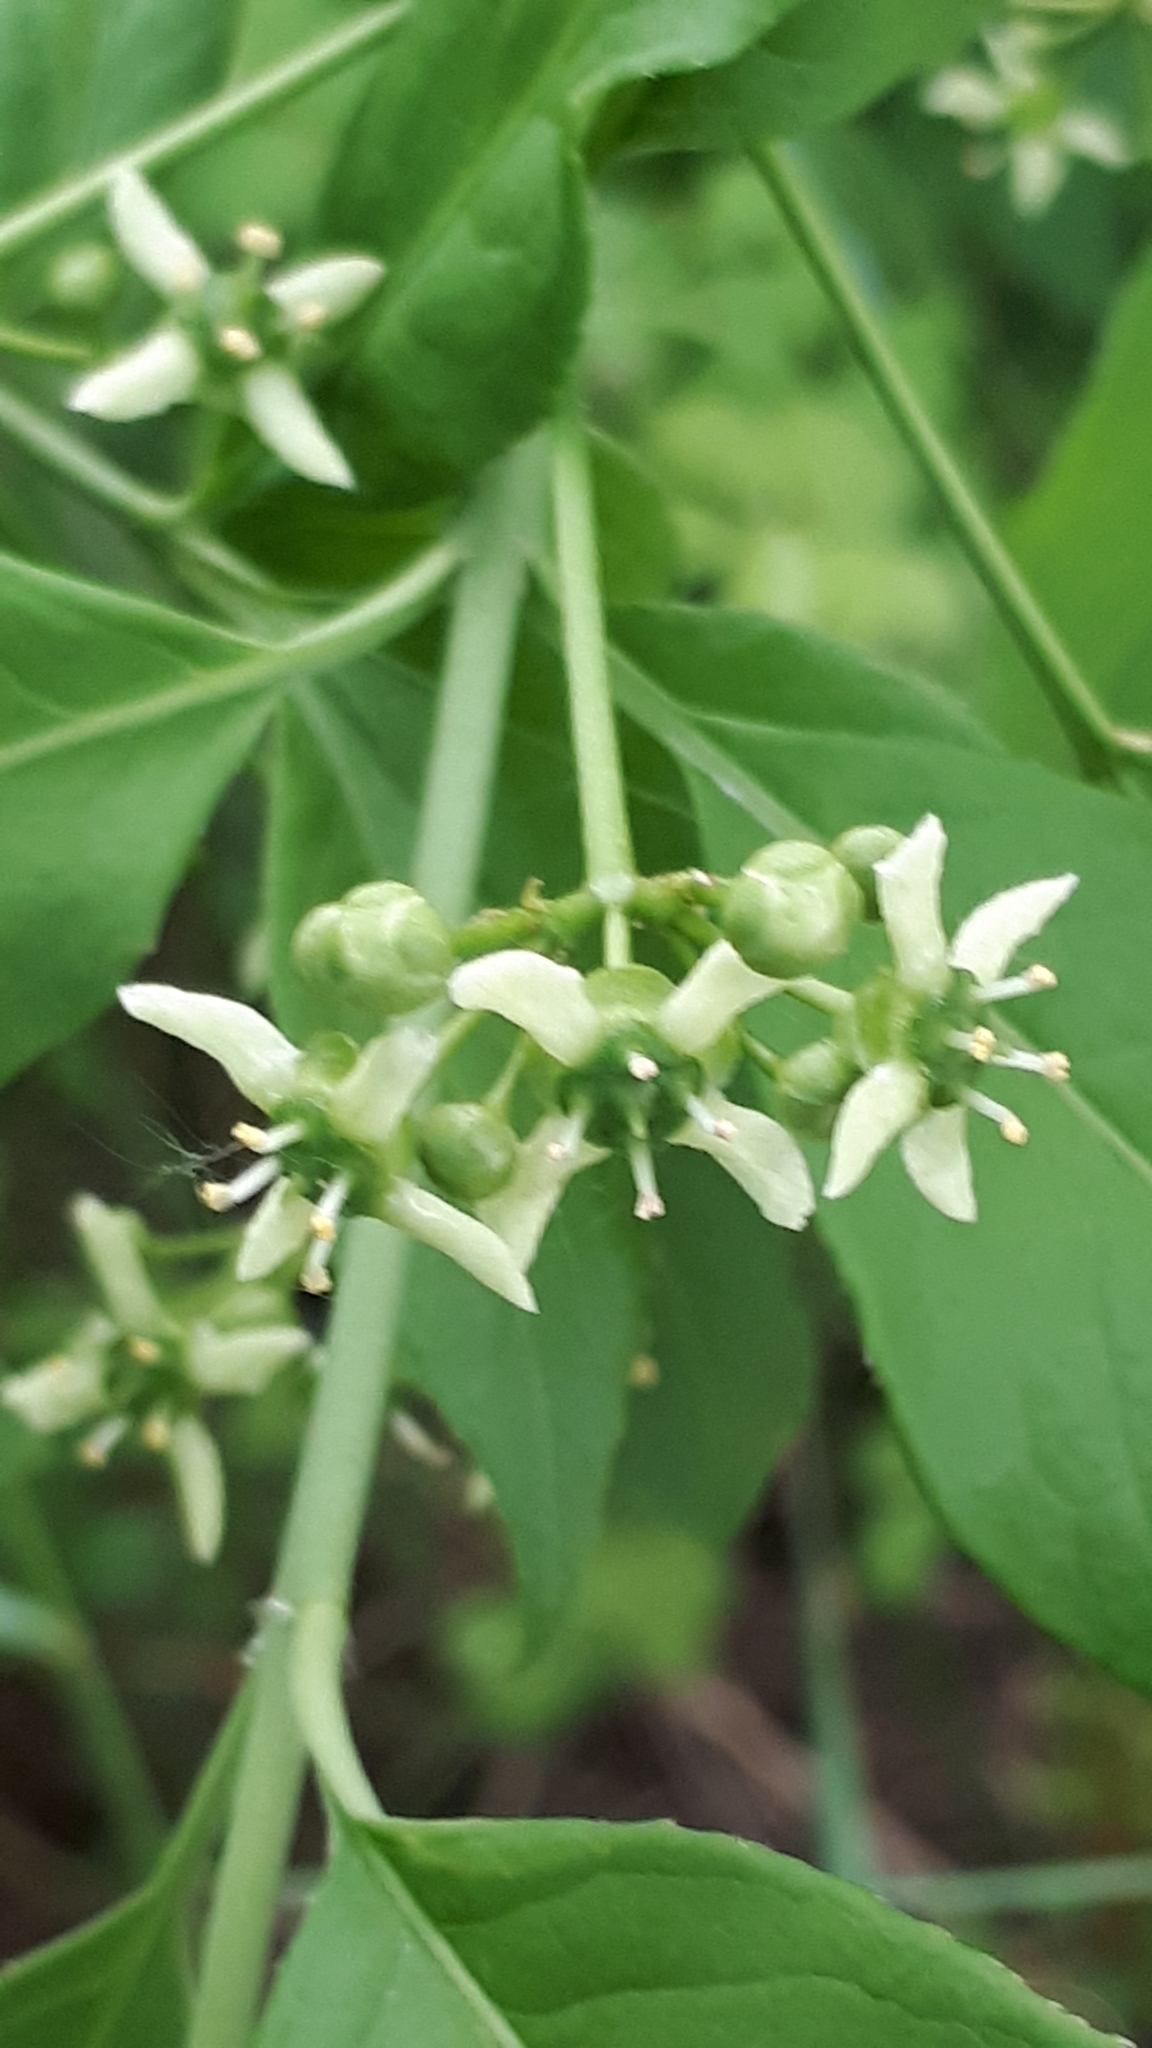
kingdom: Plantae
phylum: Tracheophyta
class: Magnoliopsida
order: Celastrales
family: Celastraceae
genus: Euonymus
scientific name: Euonymus europaeus
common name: Spindle
